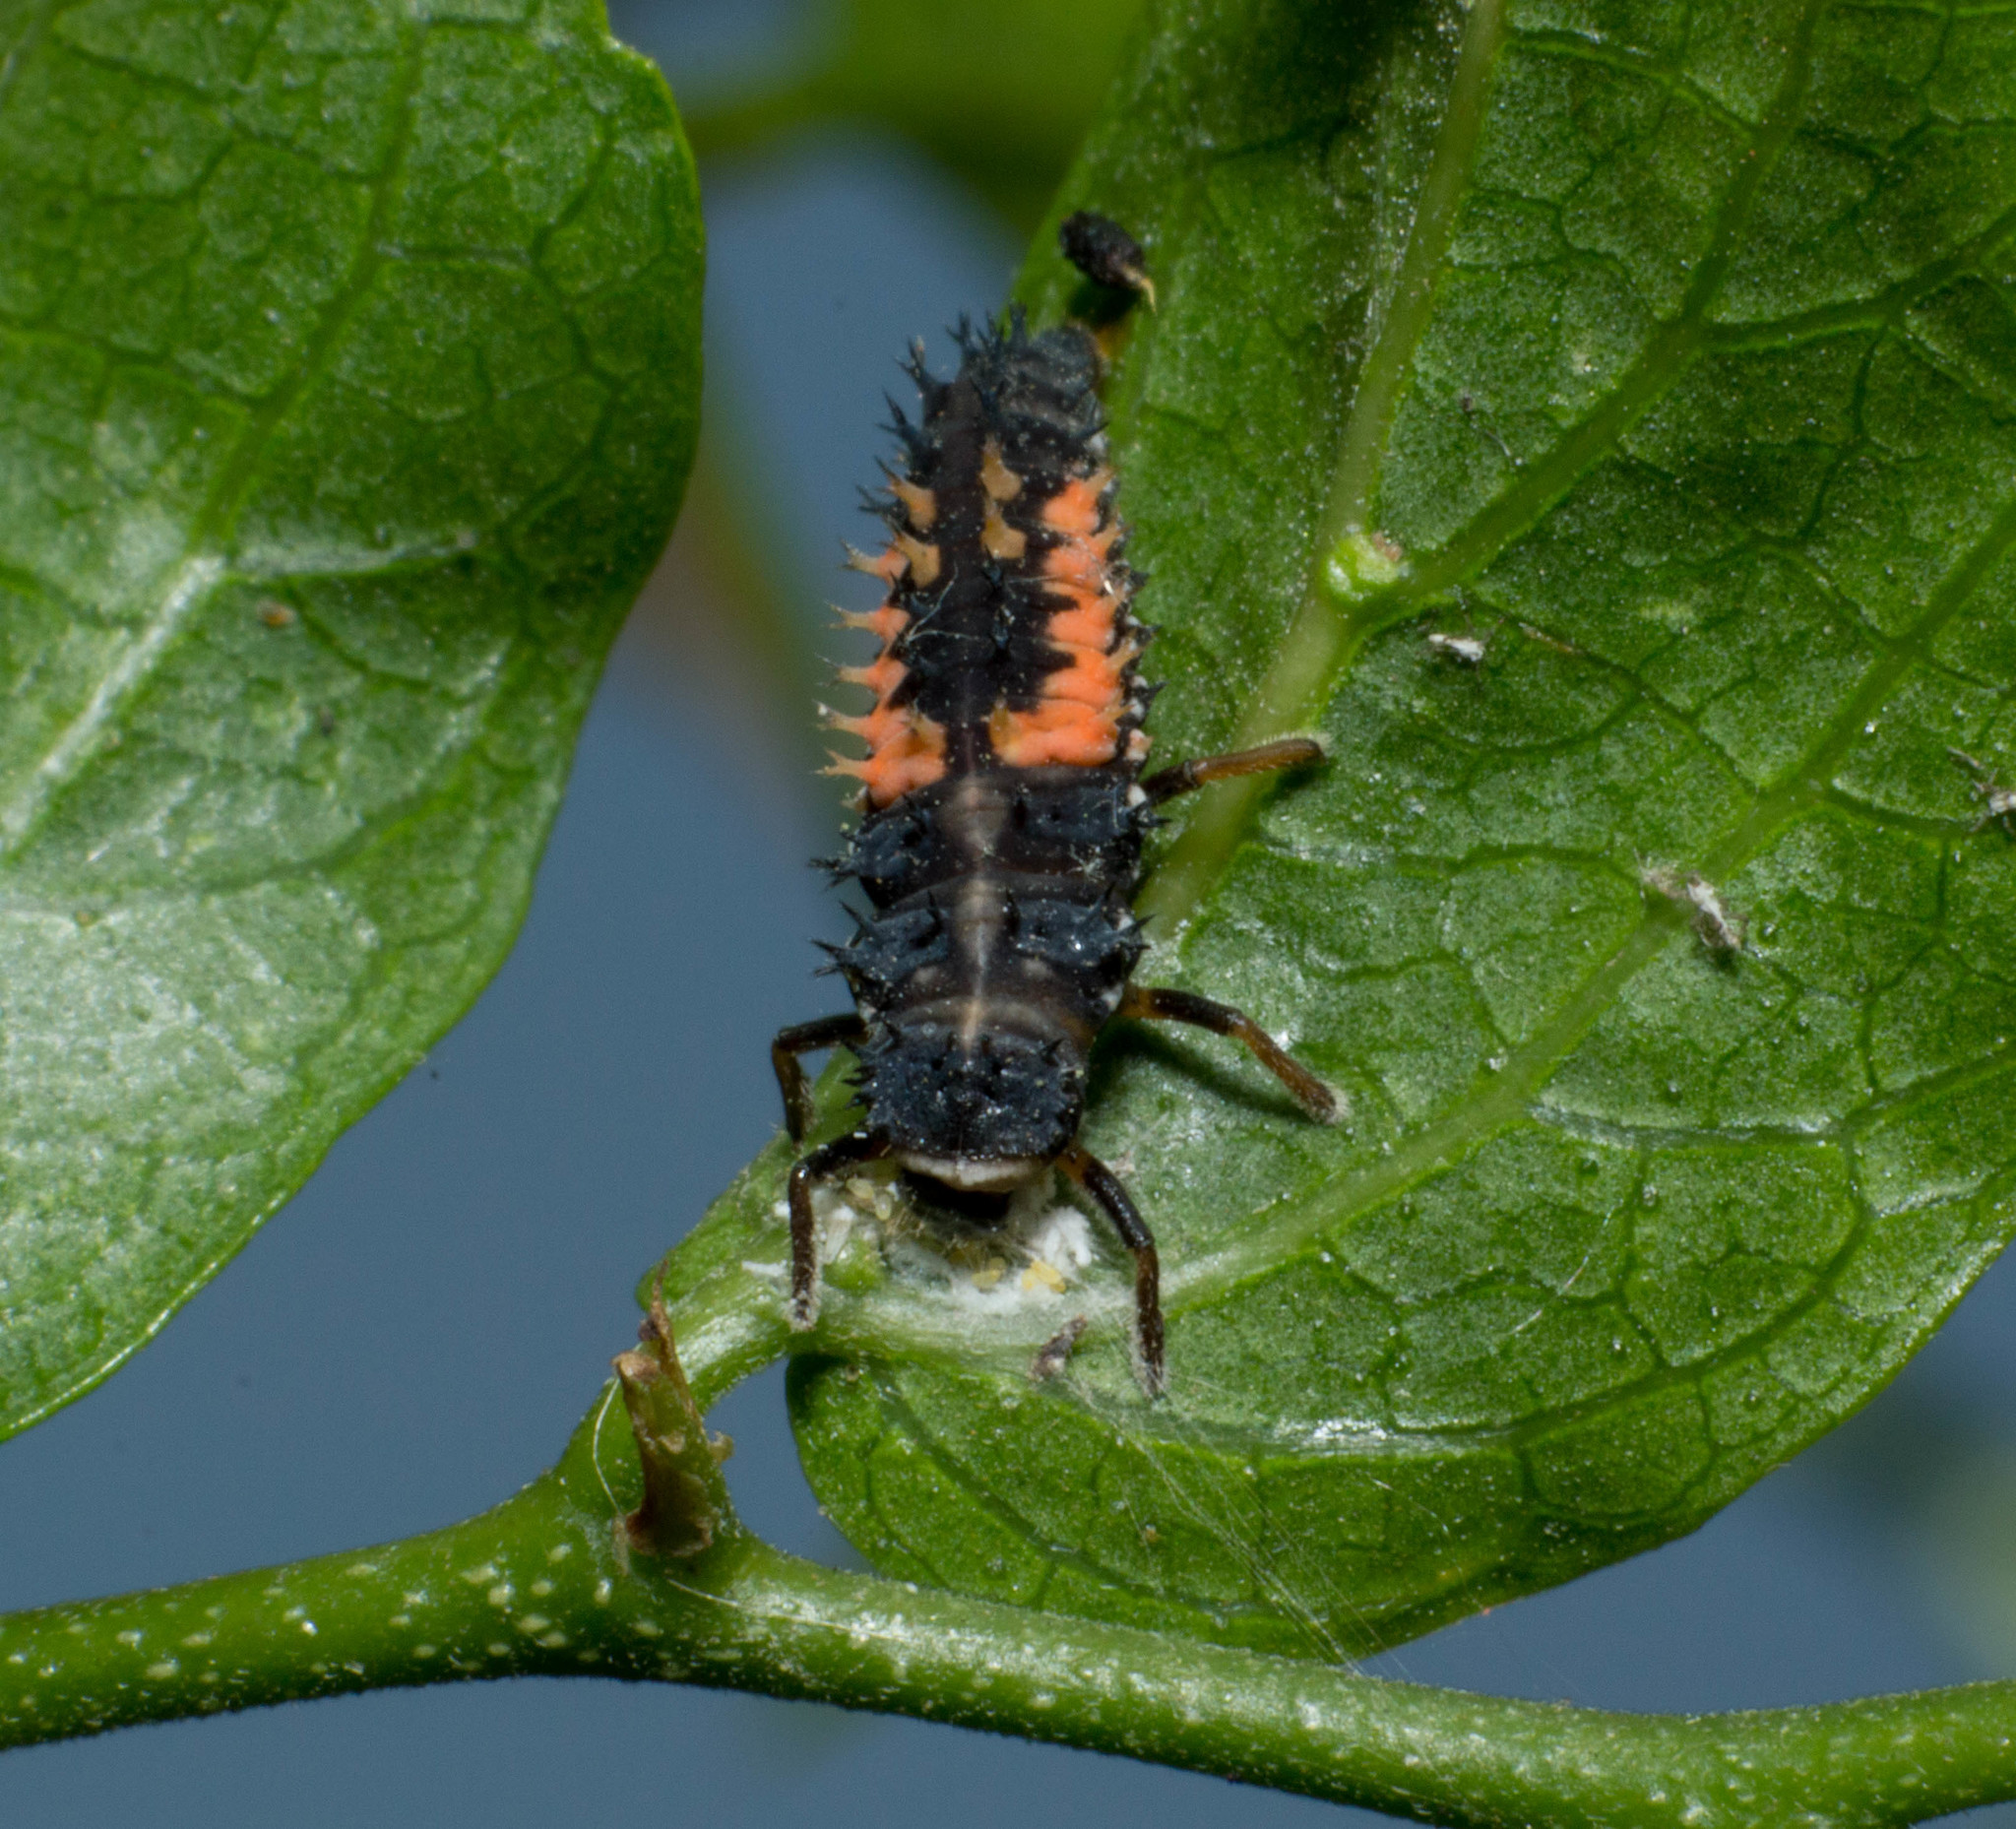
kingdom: Animalia
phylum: Arthropoda
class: Insecta
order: Coleoptera
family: Coccinellidae
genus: Harmonia
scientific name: Harmonia axyridis
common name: Harlequin ladybird
